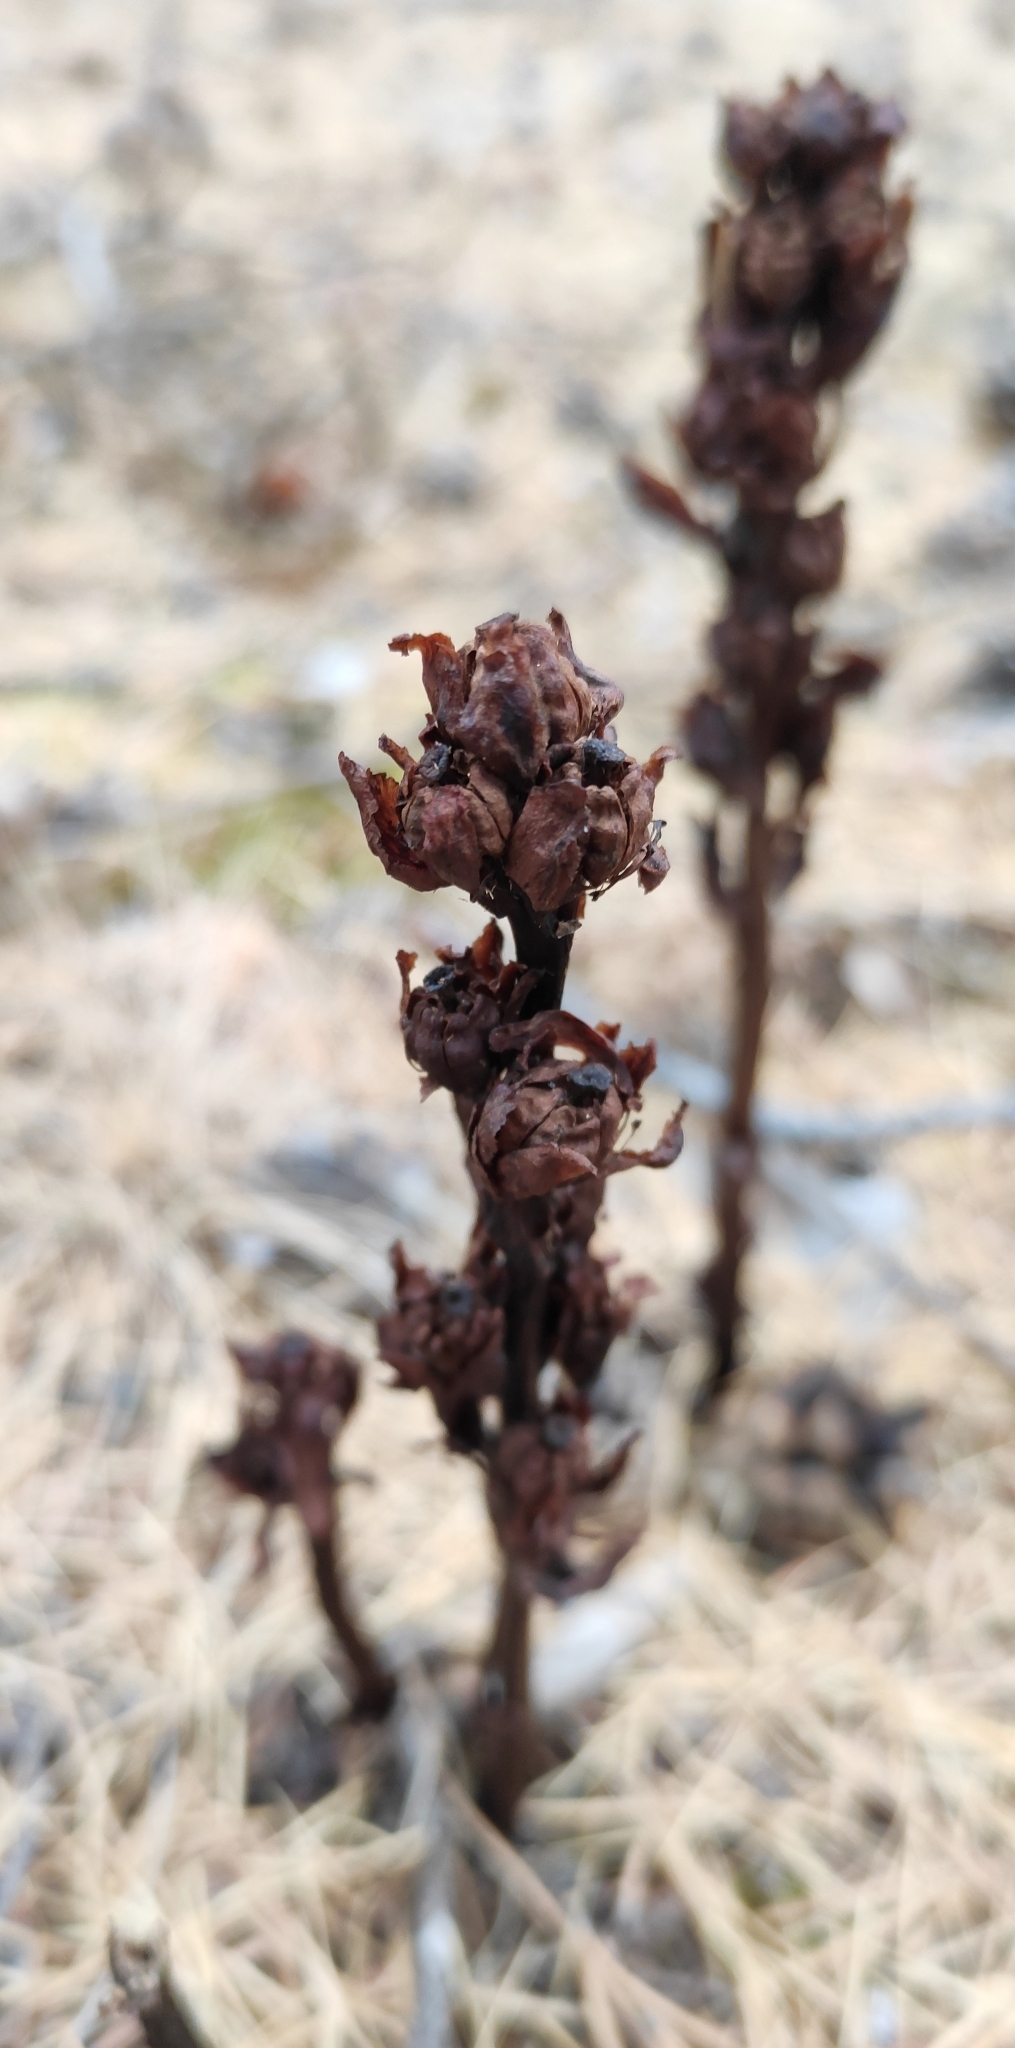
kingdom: Plantae
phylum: Tracheophyta
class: Magnoliopsida
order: Ericales
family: Ericaceae
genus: Hypopitys
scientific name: Hypopitys monotropa
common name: Yellow bird's-nest
